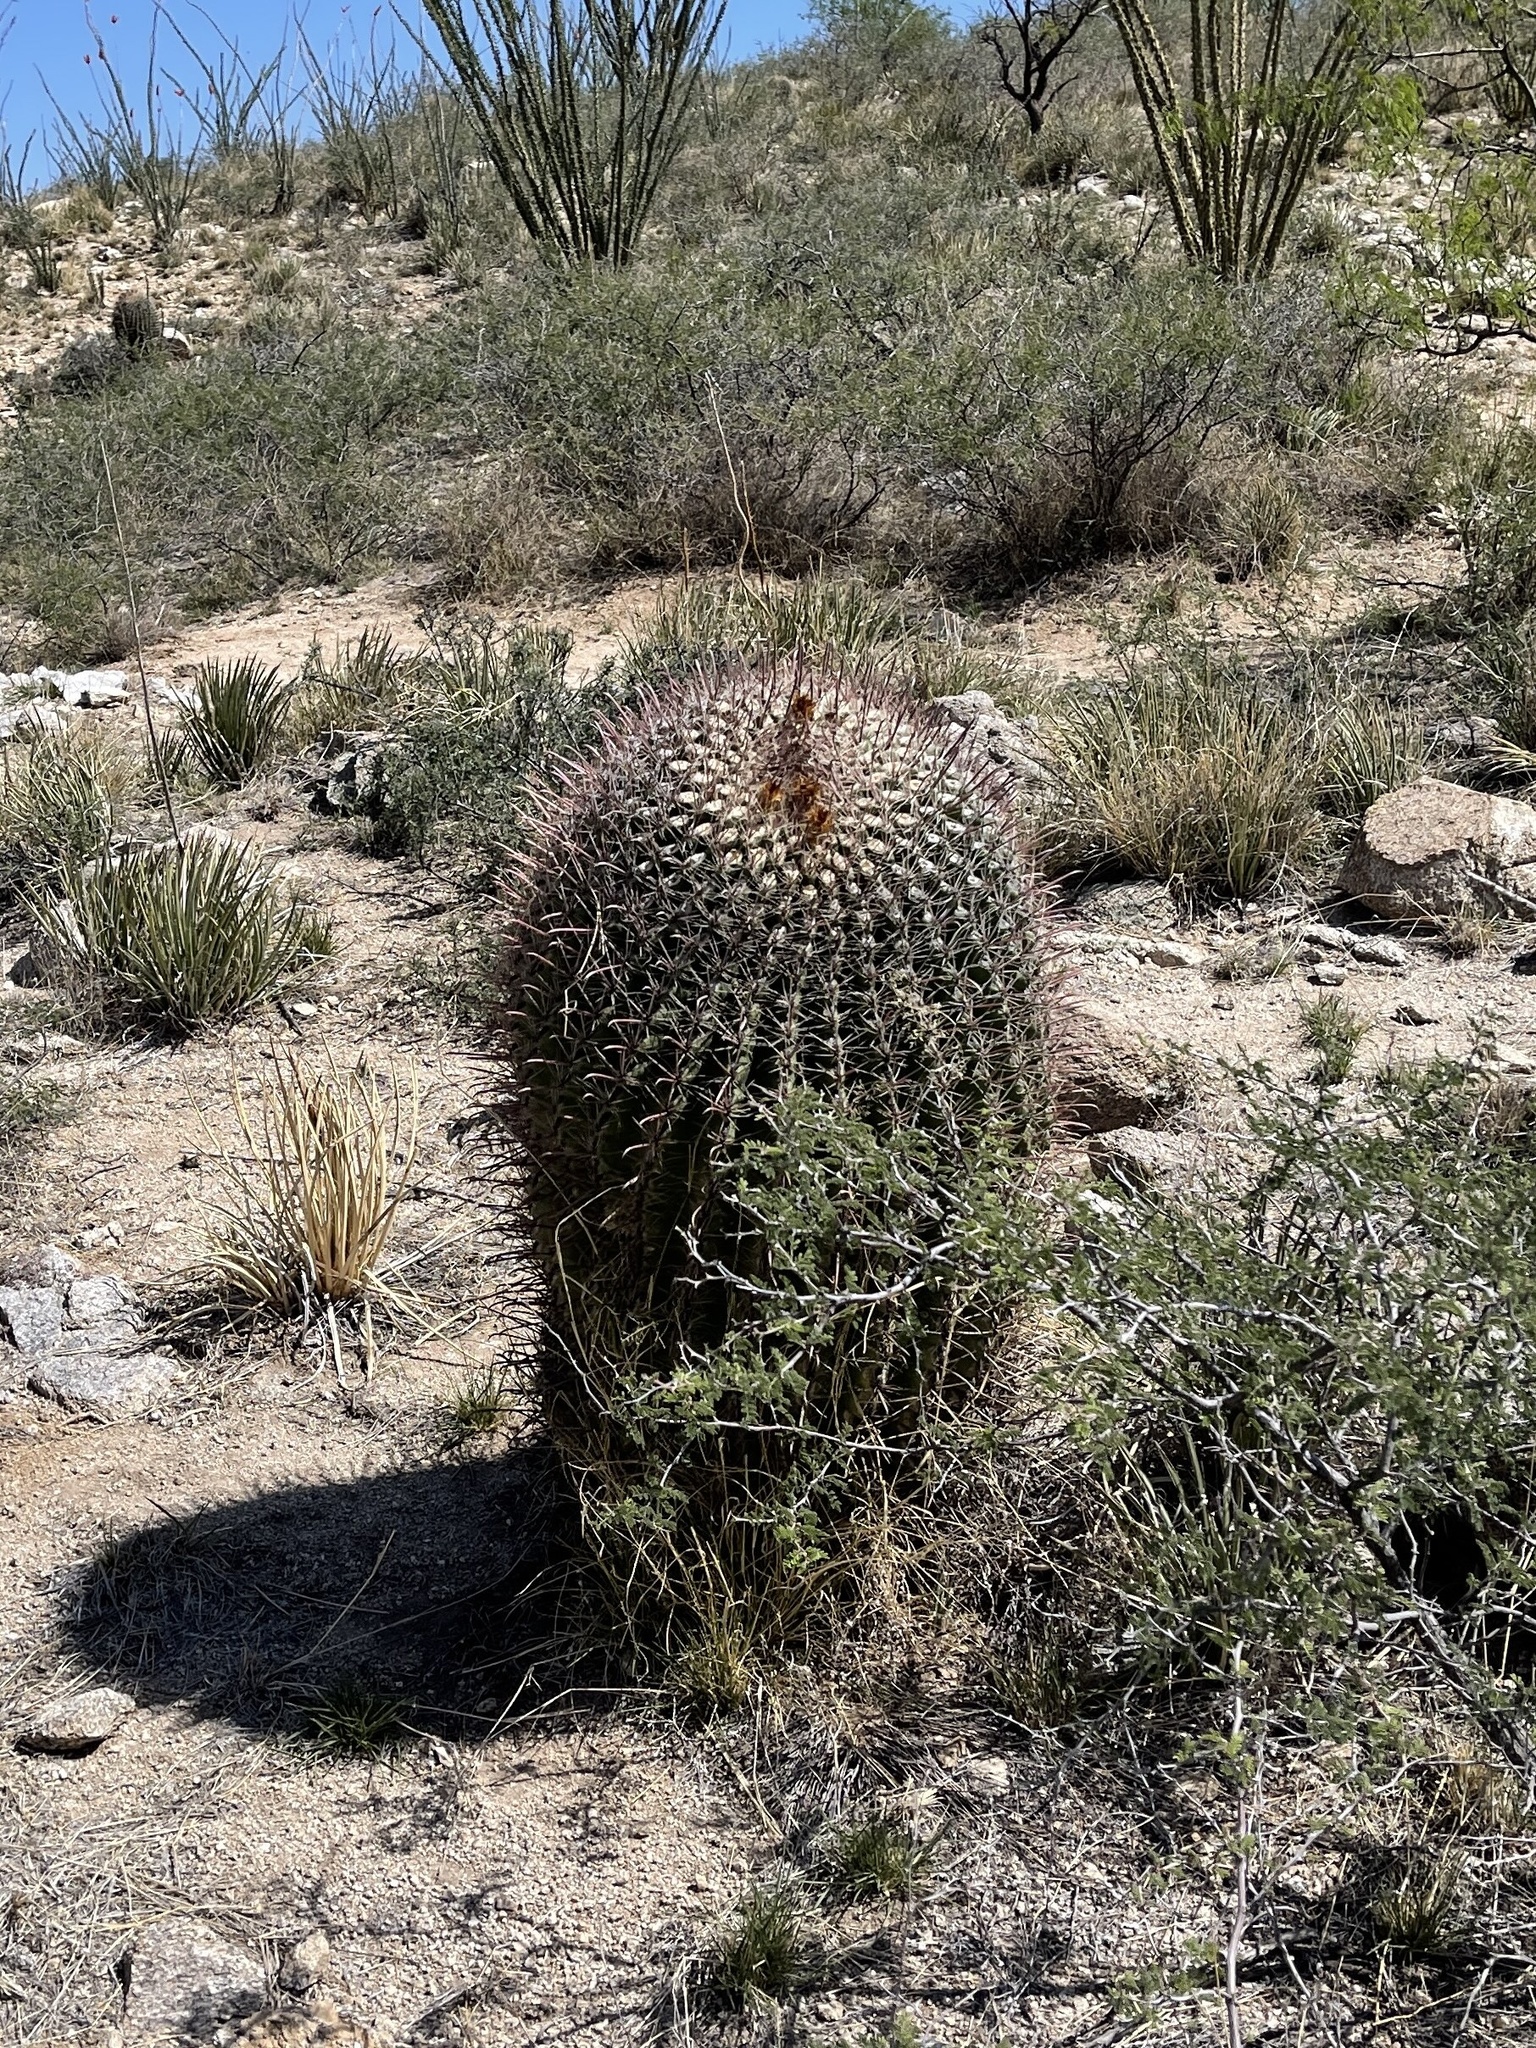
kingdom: Plantae
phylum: Tracheophyta
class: Magnoliopsida
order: Caryophyllales
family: Cactaceae
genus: Ferocactus
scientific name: Ferocactus wislizeni
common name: Candy barrel cactus
